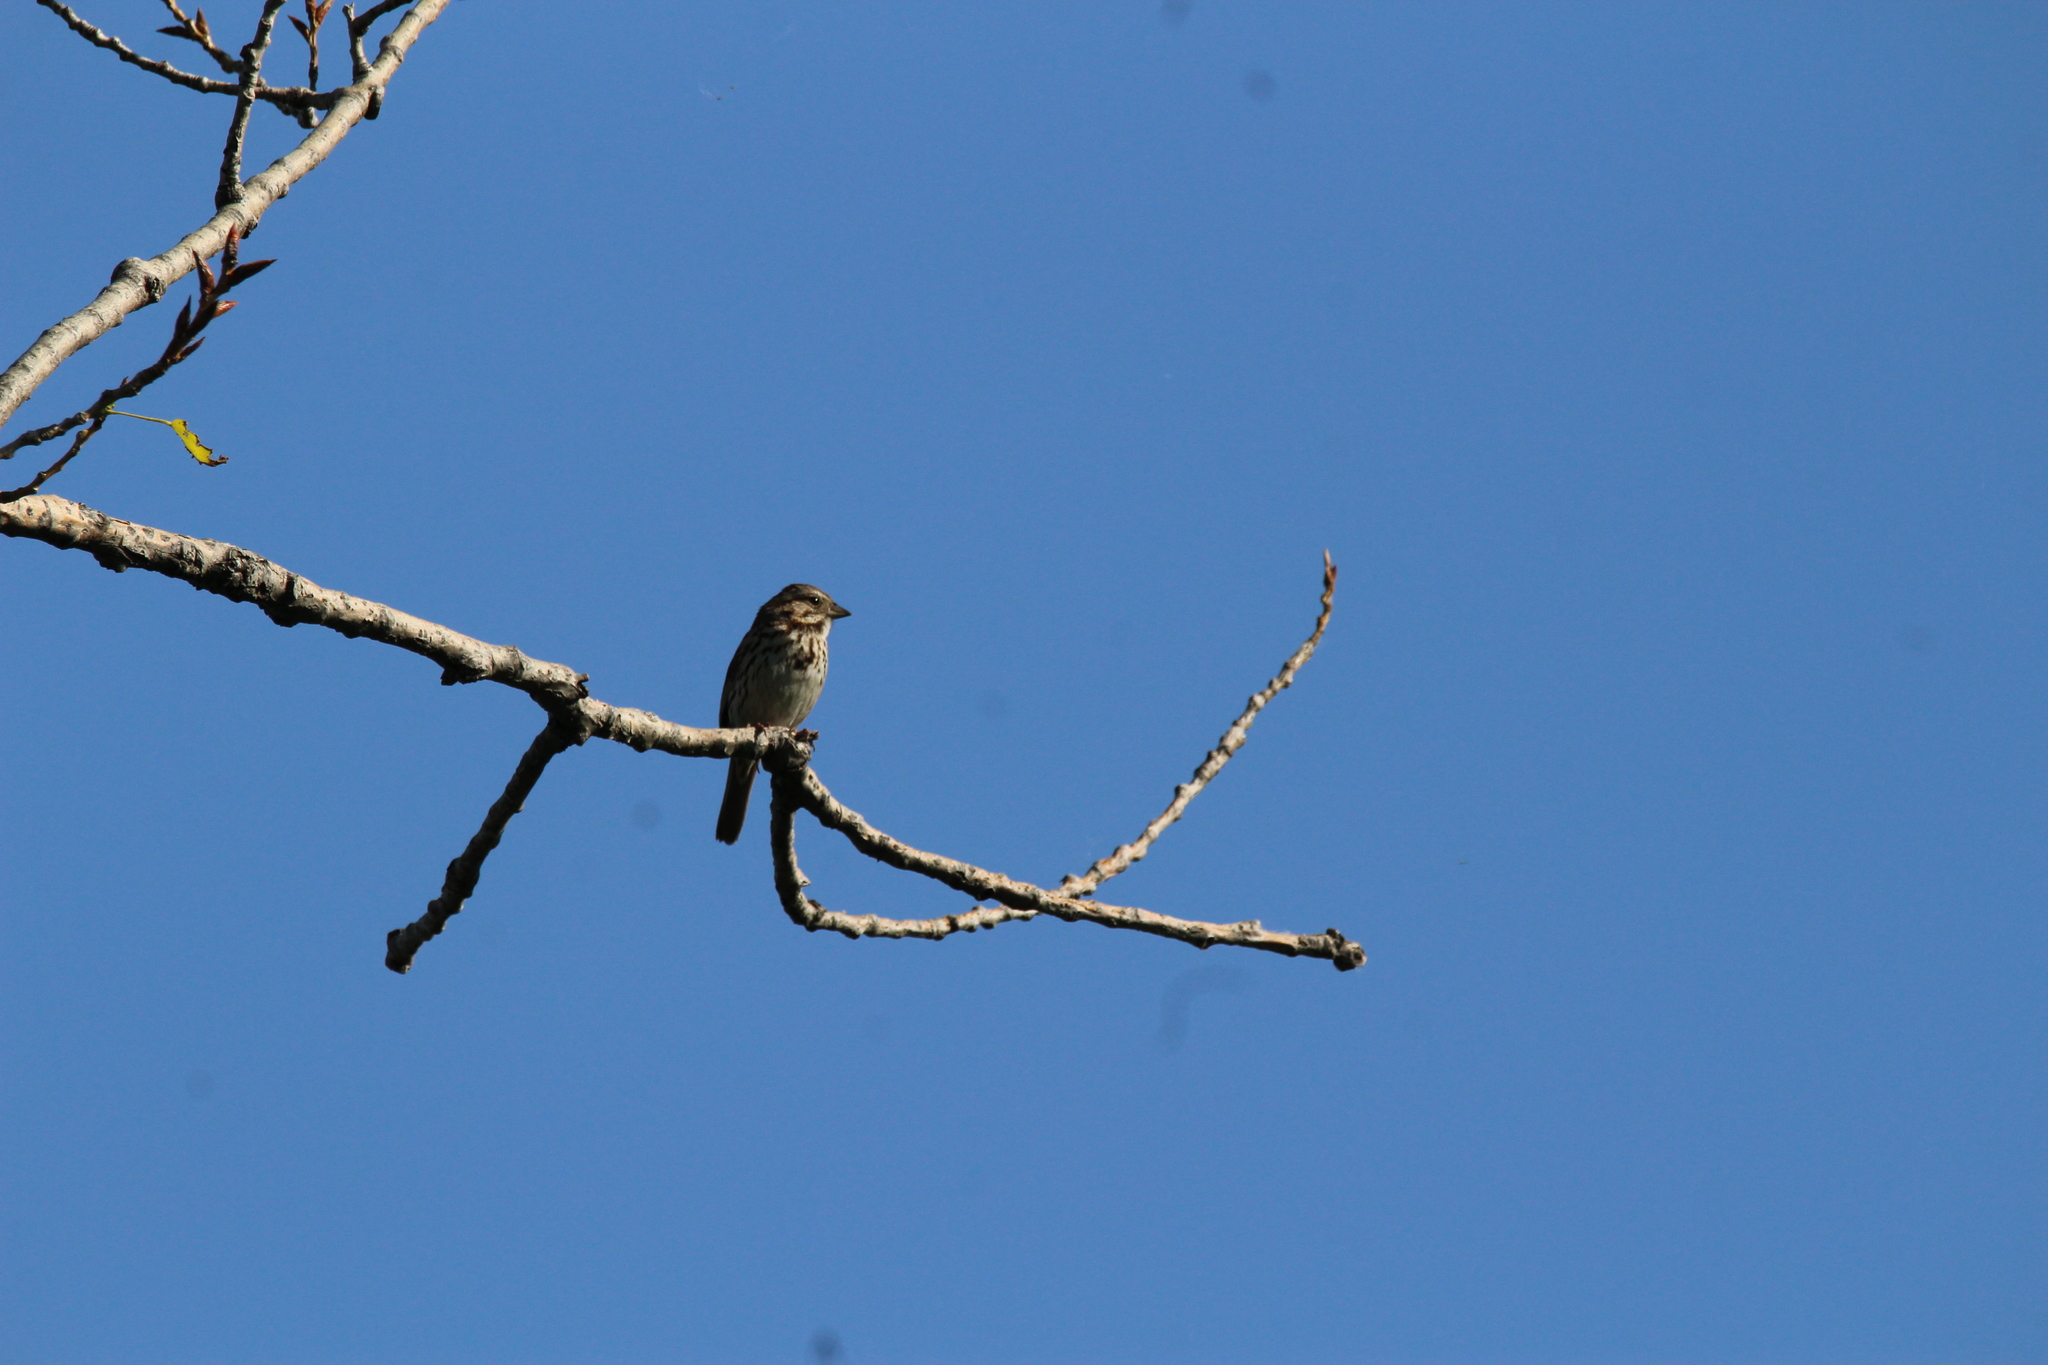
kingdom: Animalia
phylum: Chordata
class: Aves
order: Passeriformes
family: Passerellidae
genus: Melospiza
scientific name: Melospiza melodia
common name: Song sparrow
